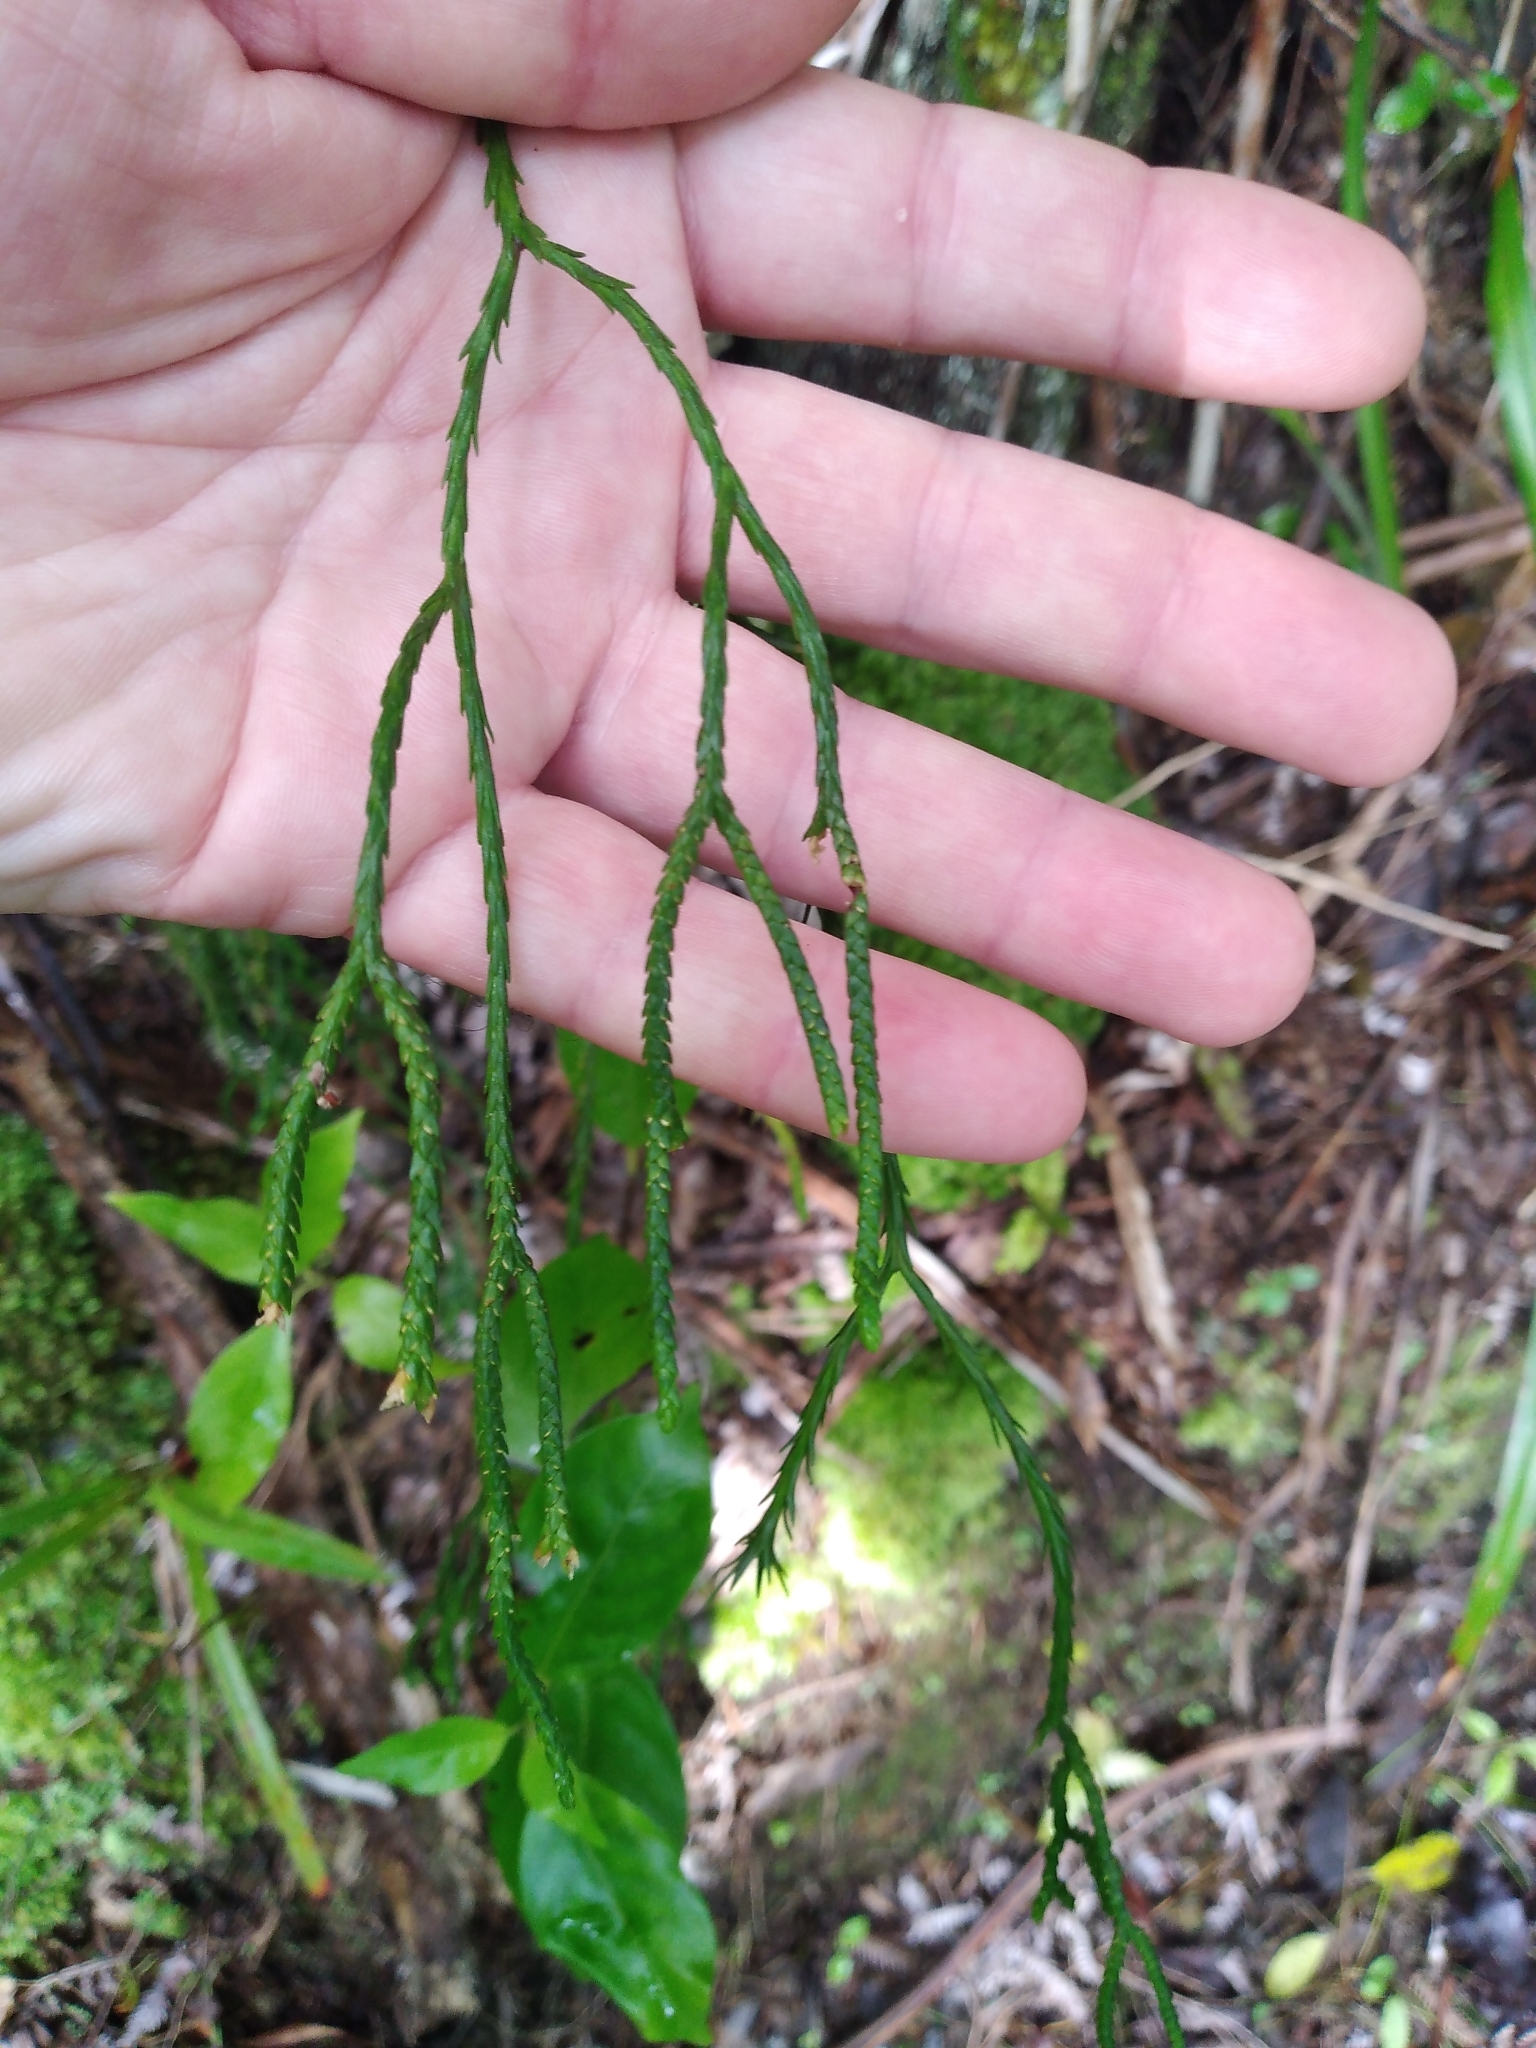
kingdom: Plantae
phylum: Tracheophyta
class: Lycopodiopsida
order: Lycopodiales
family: Lycopodiaceae
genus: Phlegmariurus
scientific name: Phlegmariurus billardierei
